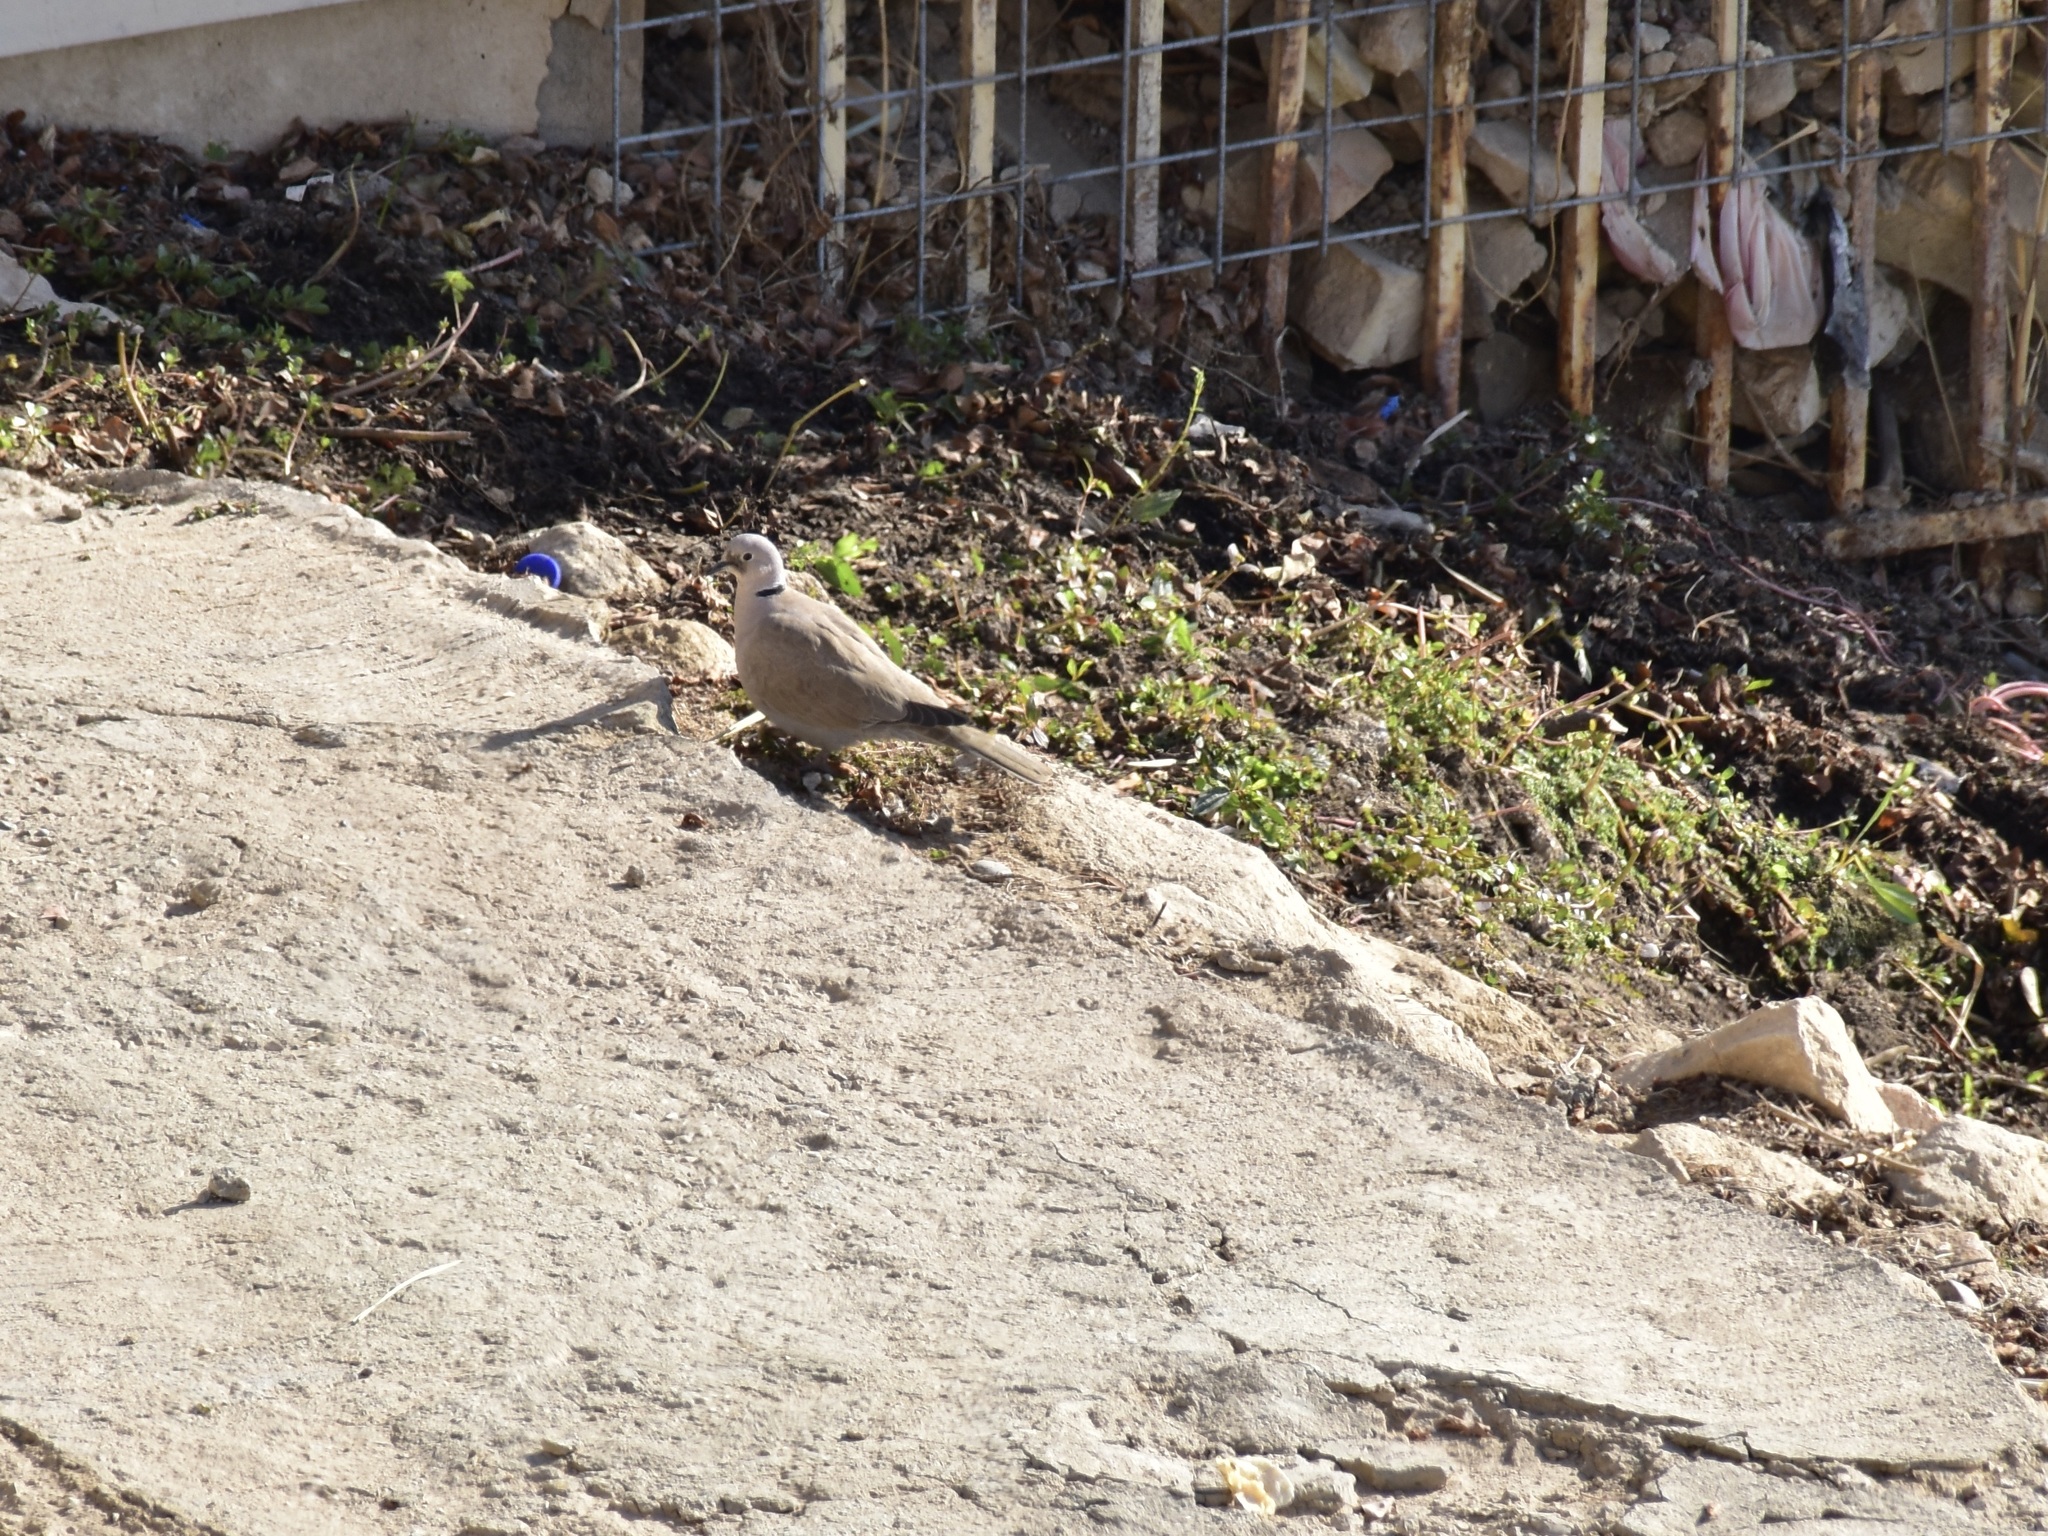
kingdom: Animalia
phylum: Chordata
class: Aves
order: Columbiformes
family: Columbidae
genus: Streptopelia
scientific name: Streptopelia decaocto
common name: Eurasian collared dove
